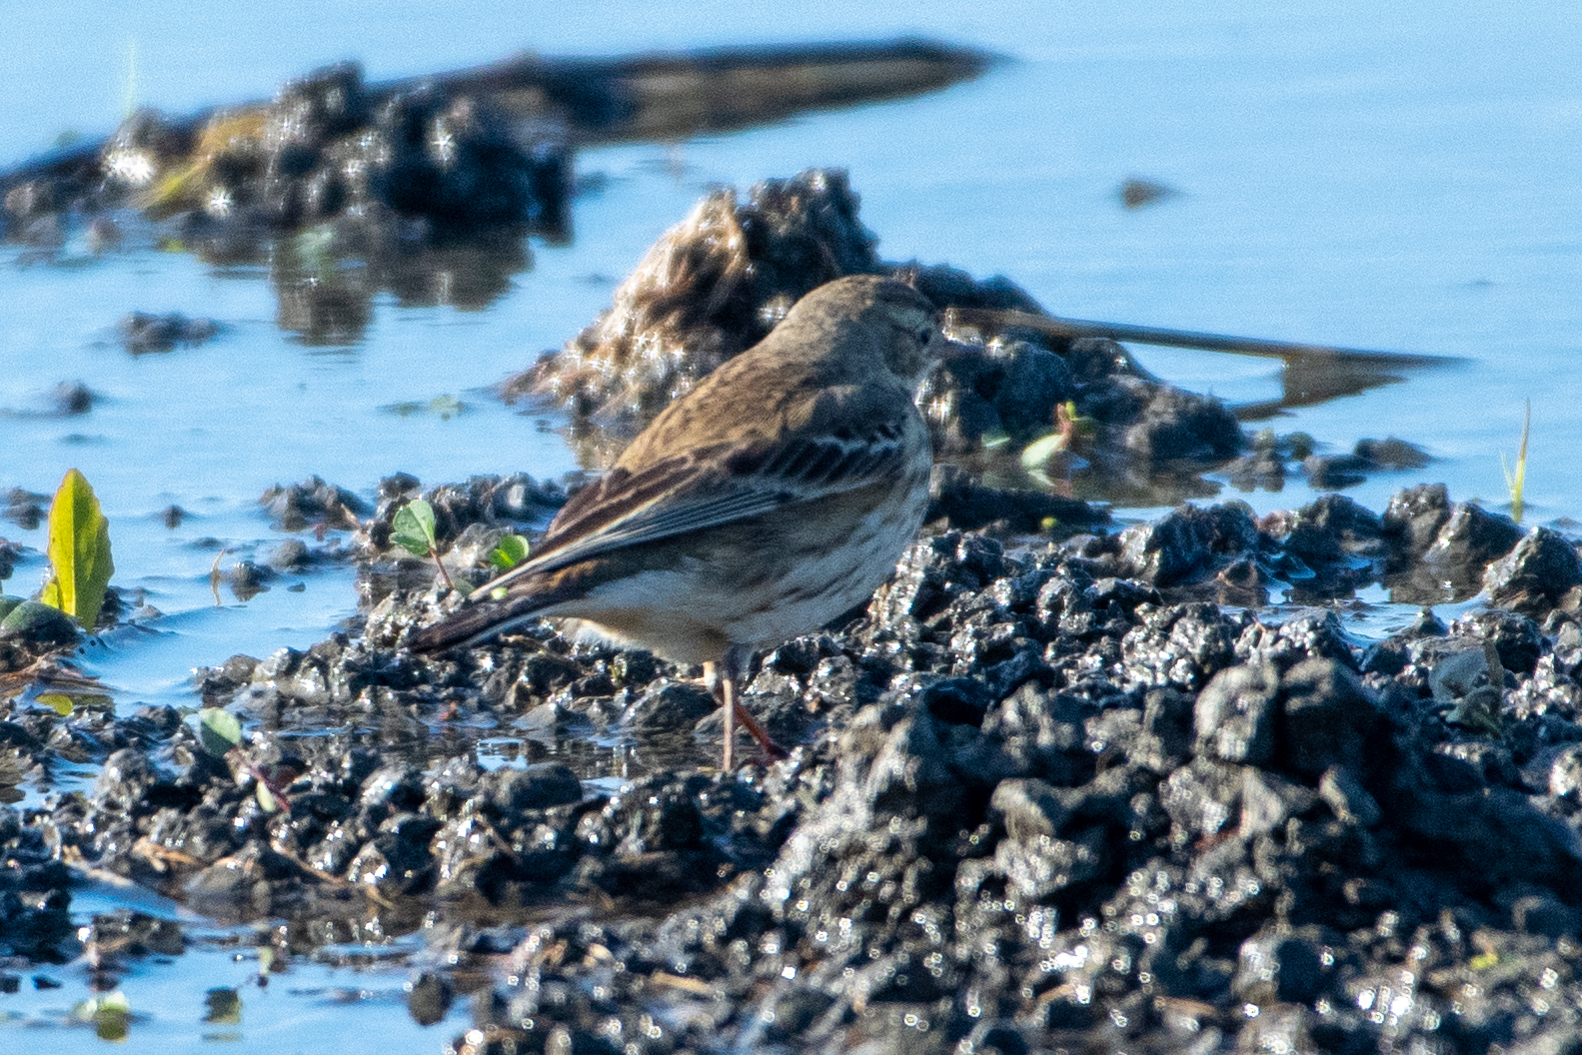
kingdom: Animalia
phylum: Chordata
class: Aves
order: Passeriformes
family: Motacillidae
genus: Anthus
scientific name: Anthus rubescens
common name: Buff-bellied pipit
